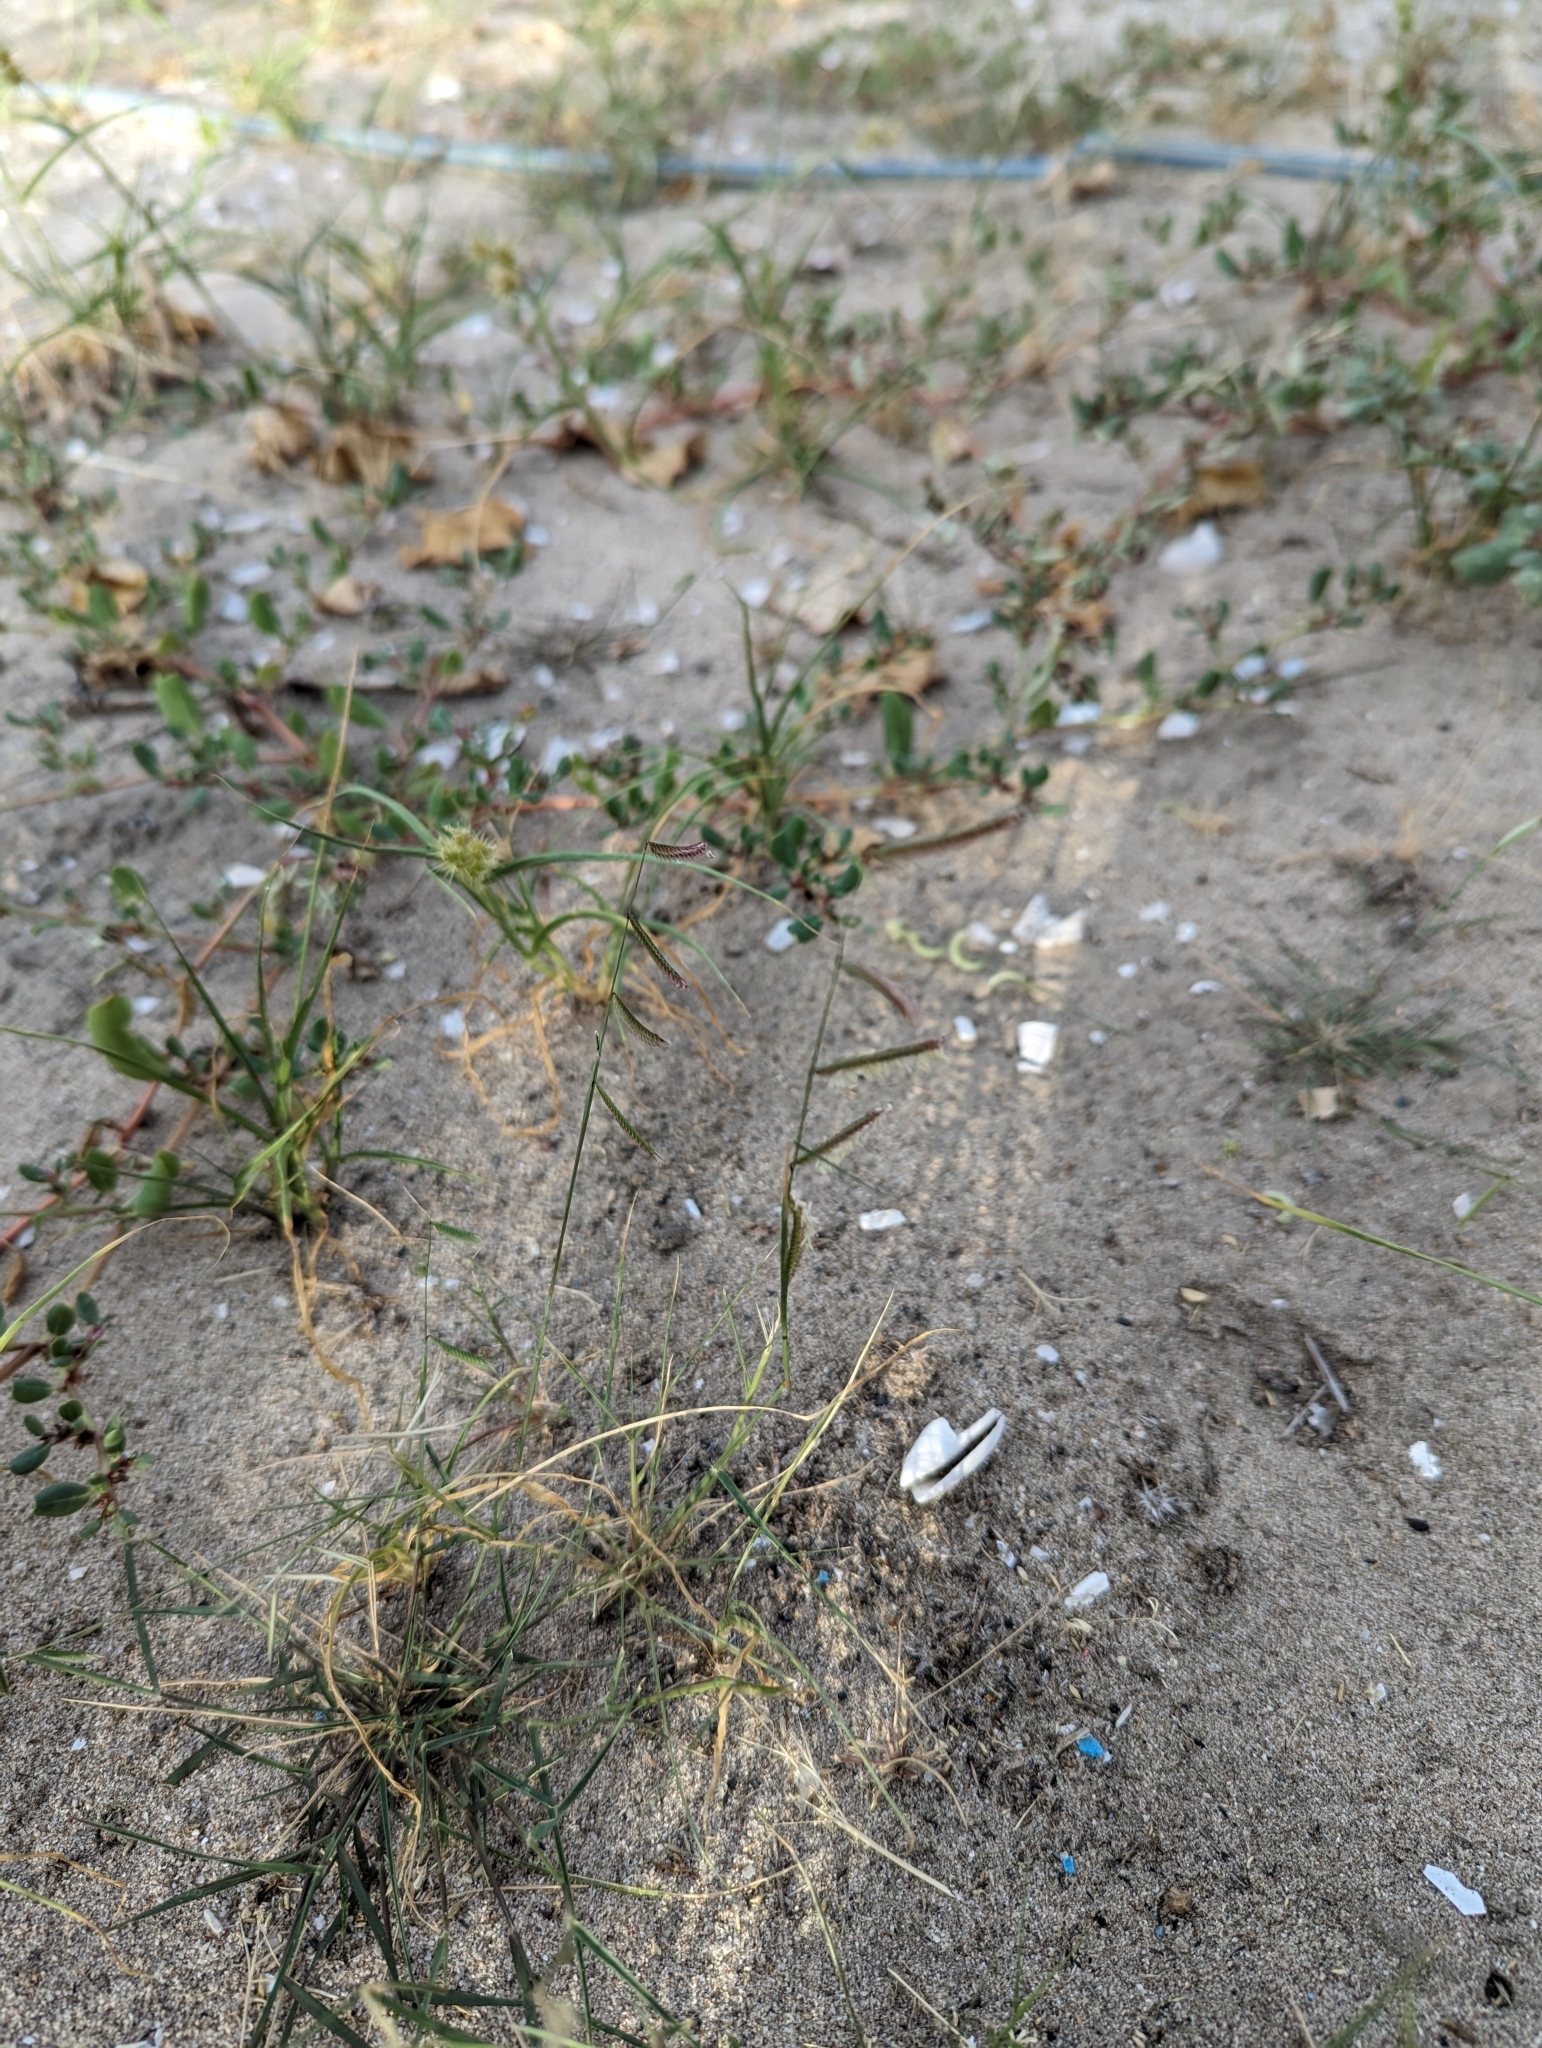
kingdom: Plantae
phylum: Tracheophyta
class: Liliopsida
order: Poales
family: Poaceae
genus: Bouteloua
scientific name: Bouteloua barbata
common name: Six-weeks grama
